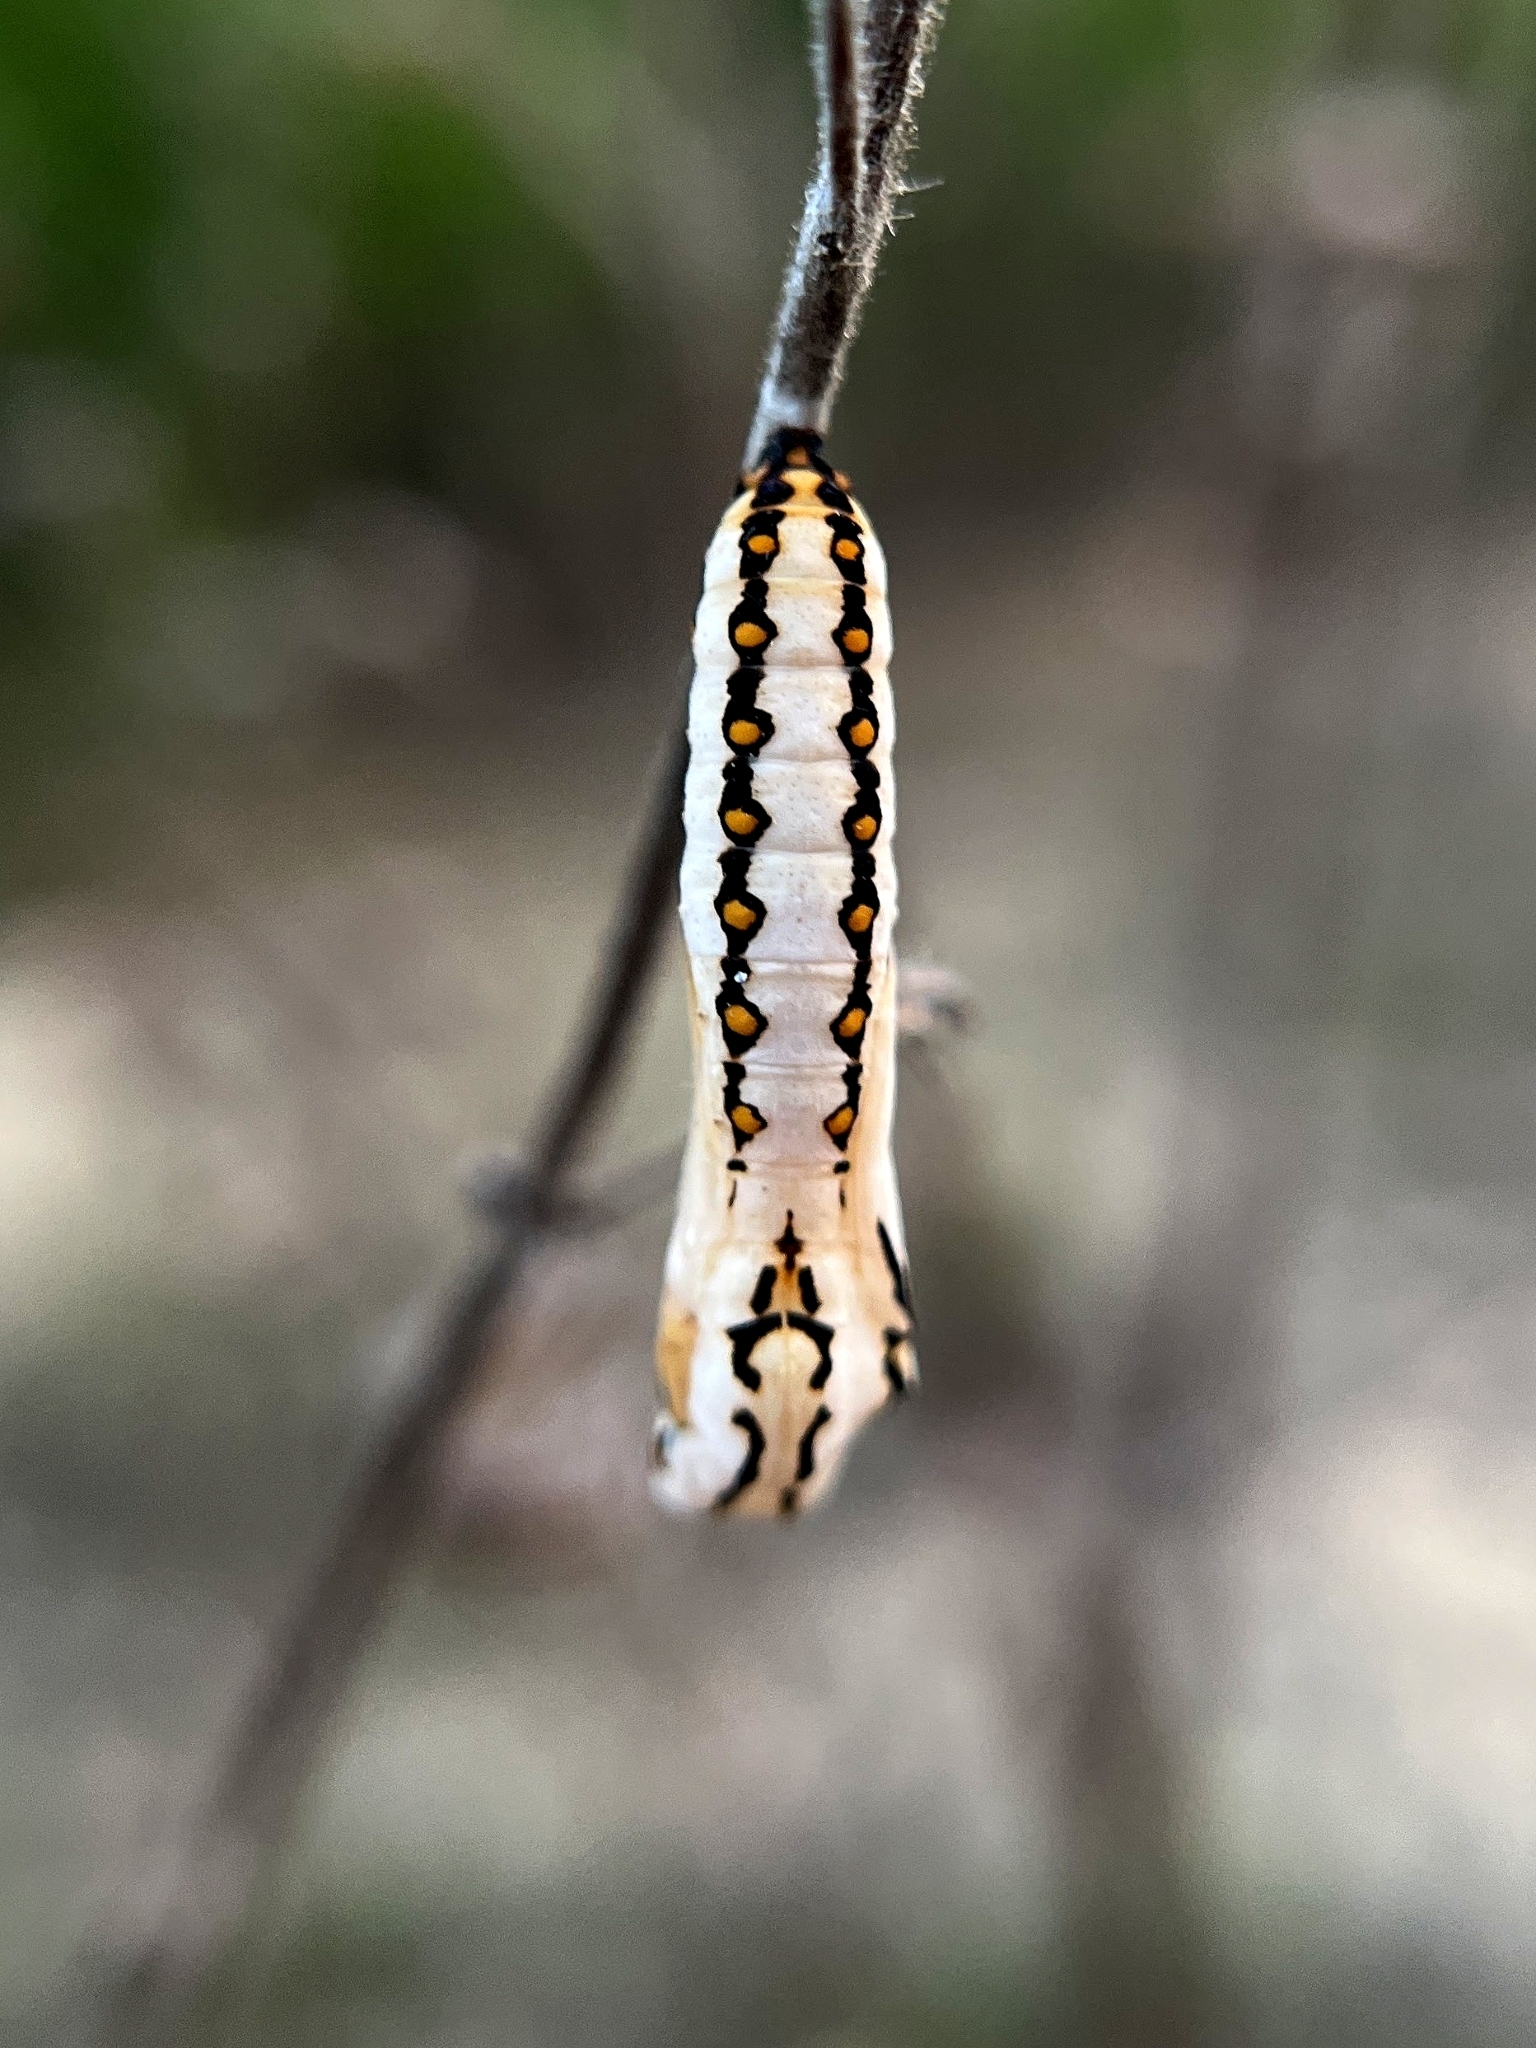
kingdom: Animalia
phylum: Arthropoda
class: Insecta
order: Lepidoptera
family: Nymphalidae
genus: Acraea
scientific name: Acraea terpsicore
